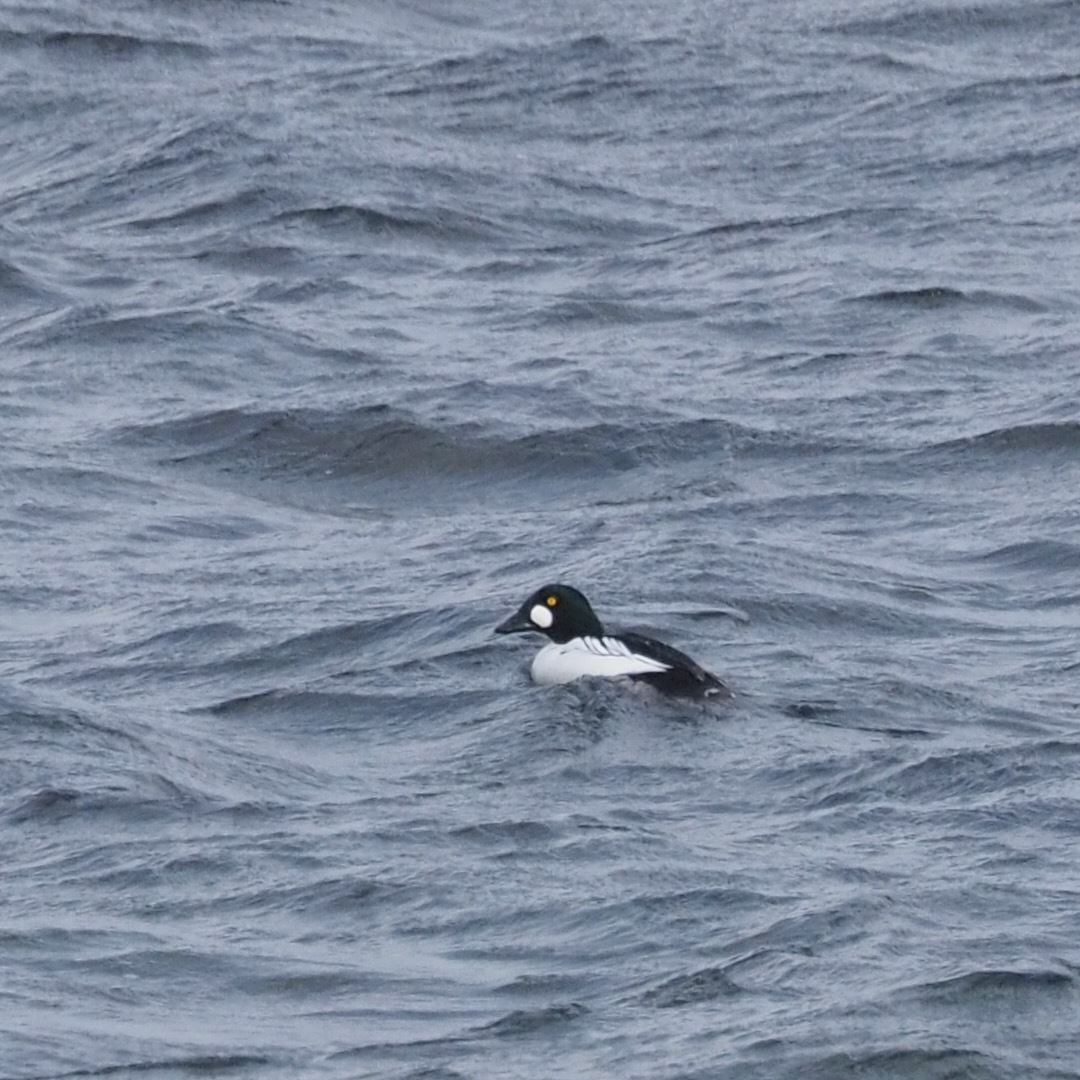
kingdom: Animalia
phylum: Chordata
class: Aves
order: Anseriformes
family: Anatidae
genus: Bucephala
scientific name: Bucephala clangula
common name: Common goldeneye
